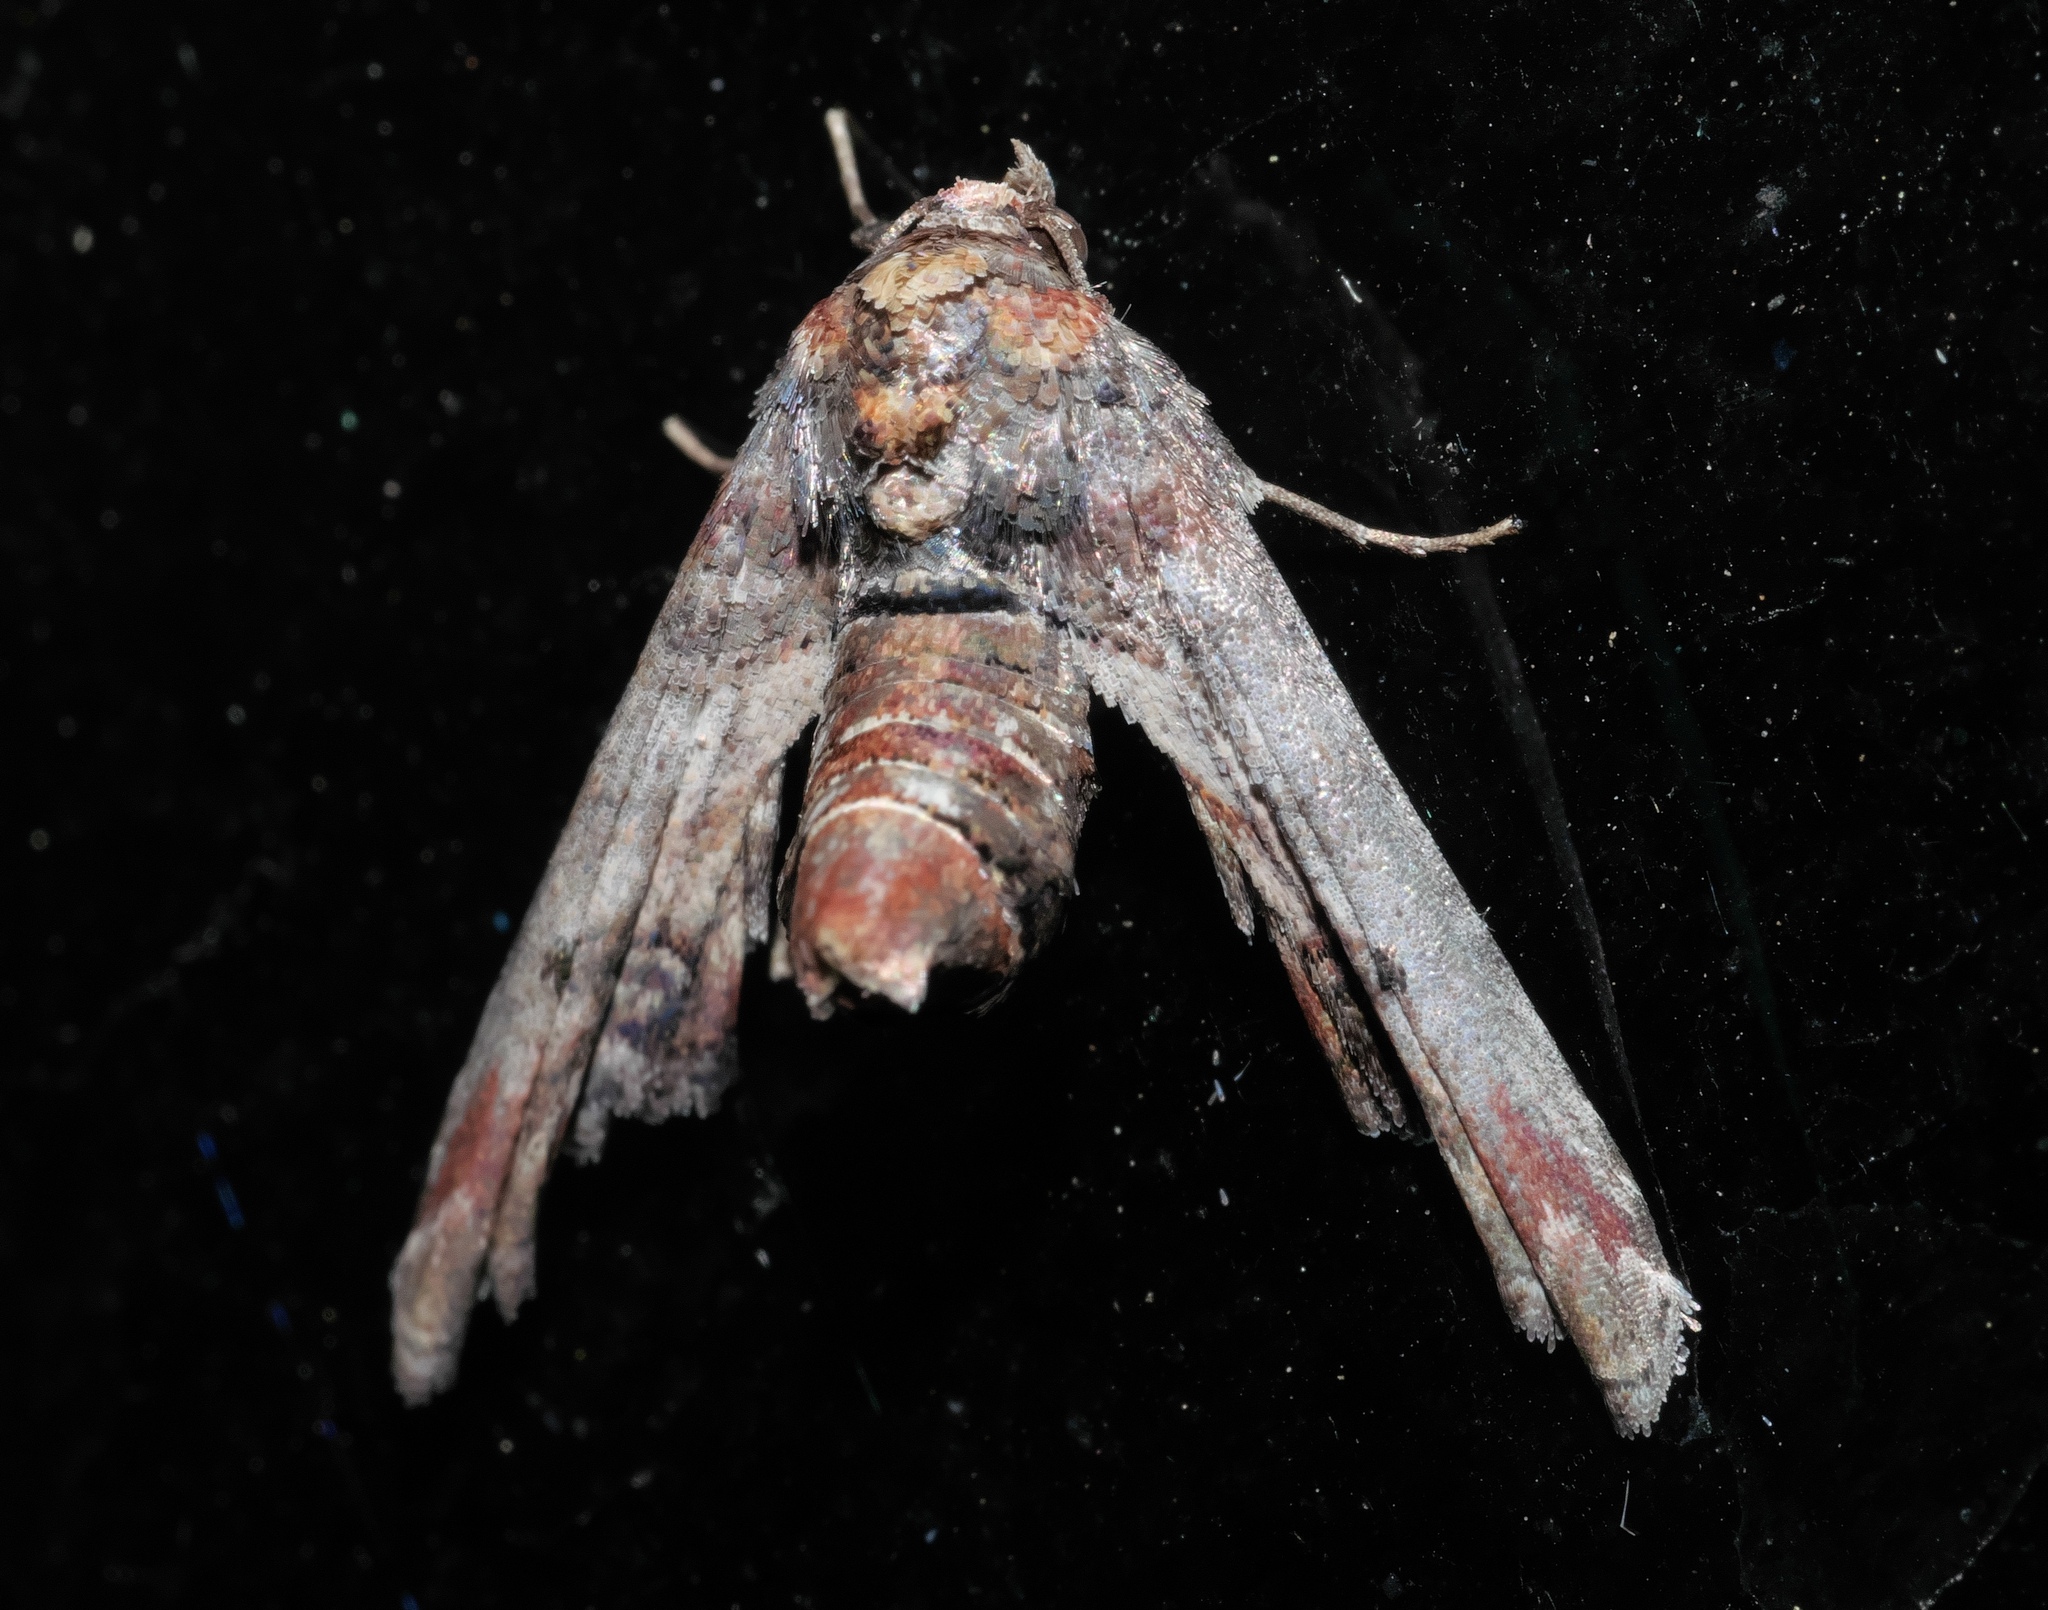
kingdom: Animalia
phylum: Arthropoda
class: Insecta
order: Lepidoptera
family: Euteliidae
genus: Marathyssa
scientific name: Marathyssa inficita
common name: Dark marathyssa moth
